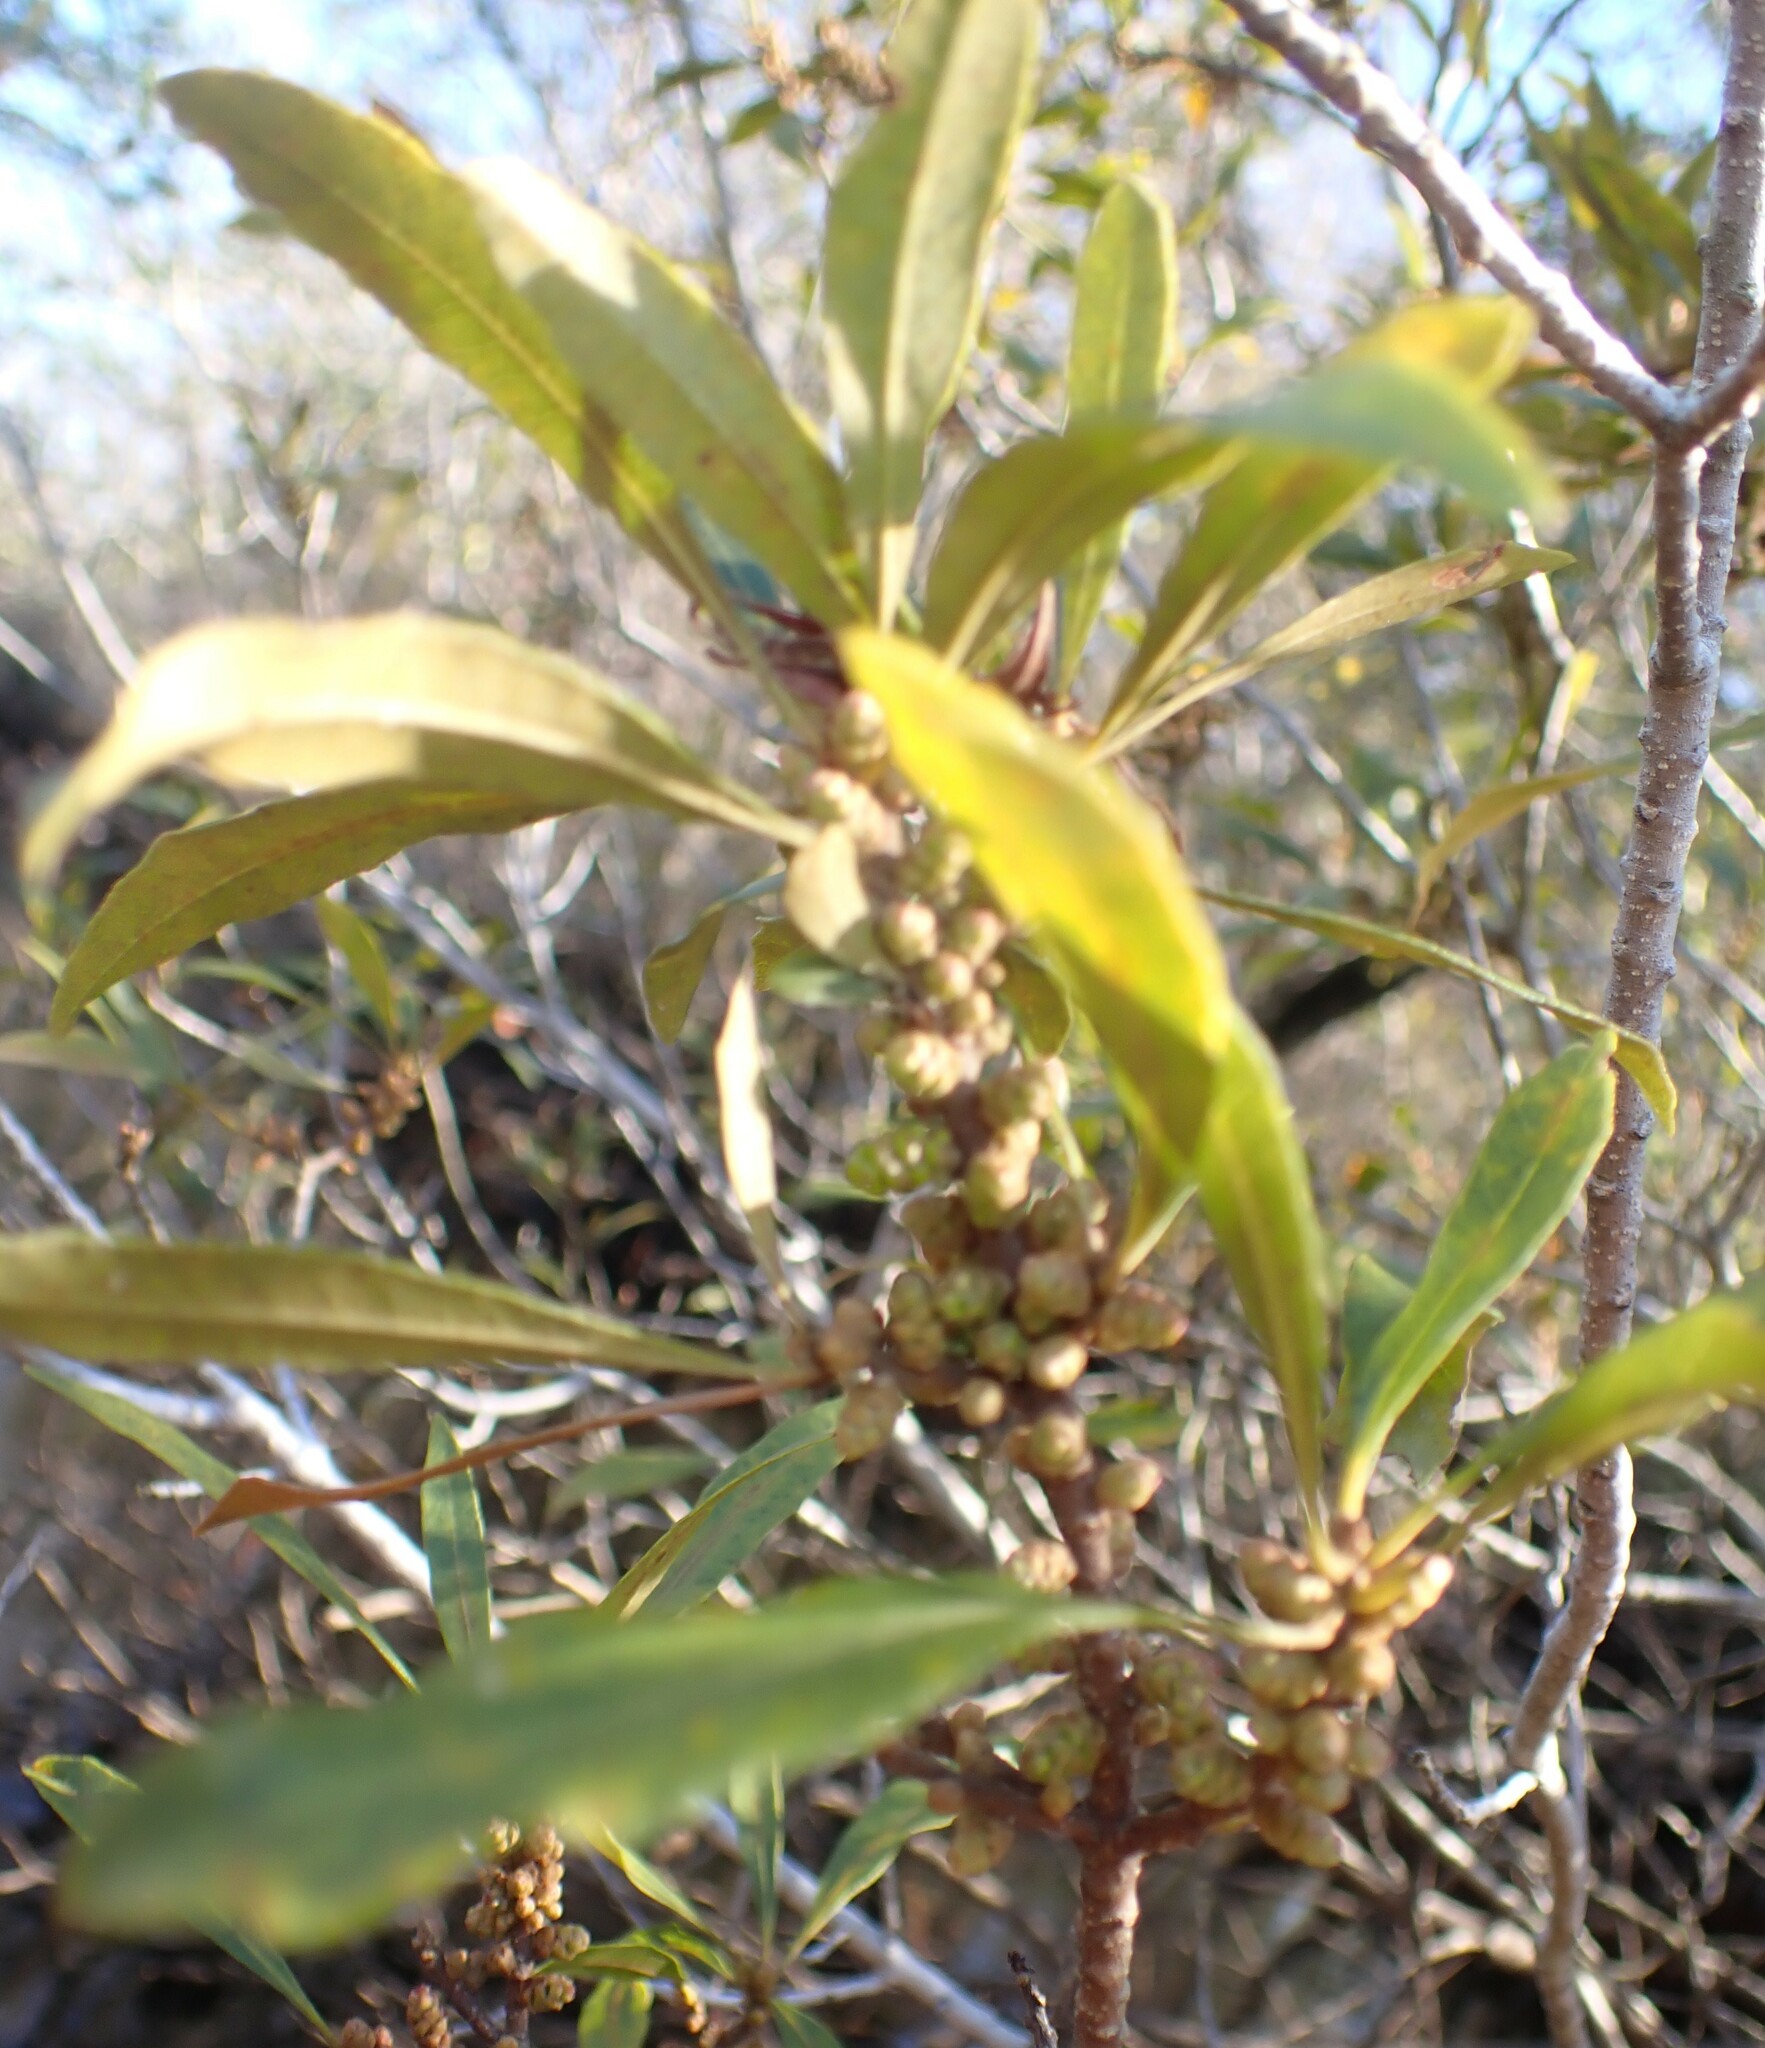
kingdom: Plantae
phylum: Tracheophyta
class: Magnoliopsida
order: Fagales
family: Myricaceae
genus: Morella
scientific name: Morella cerifera
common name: Wax myrtle
